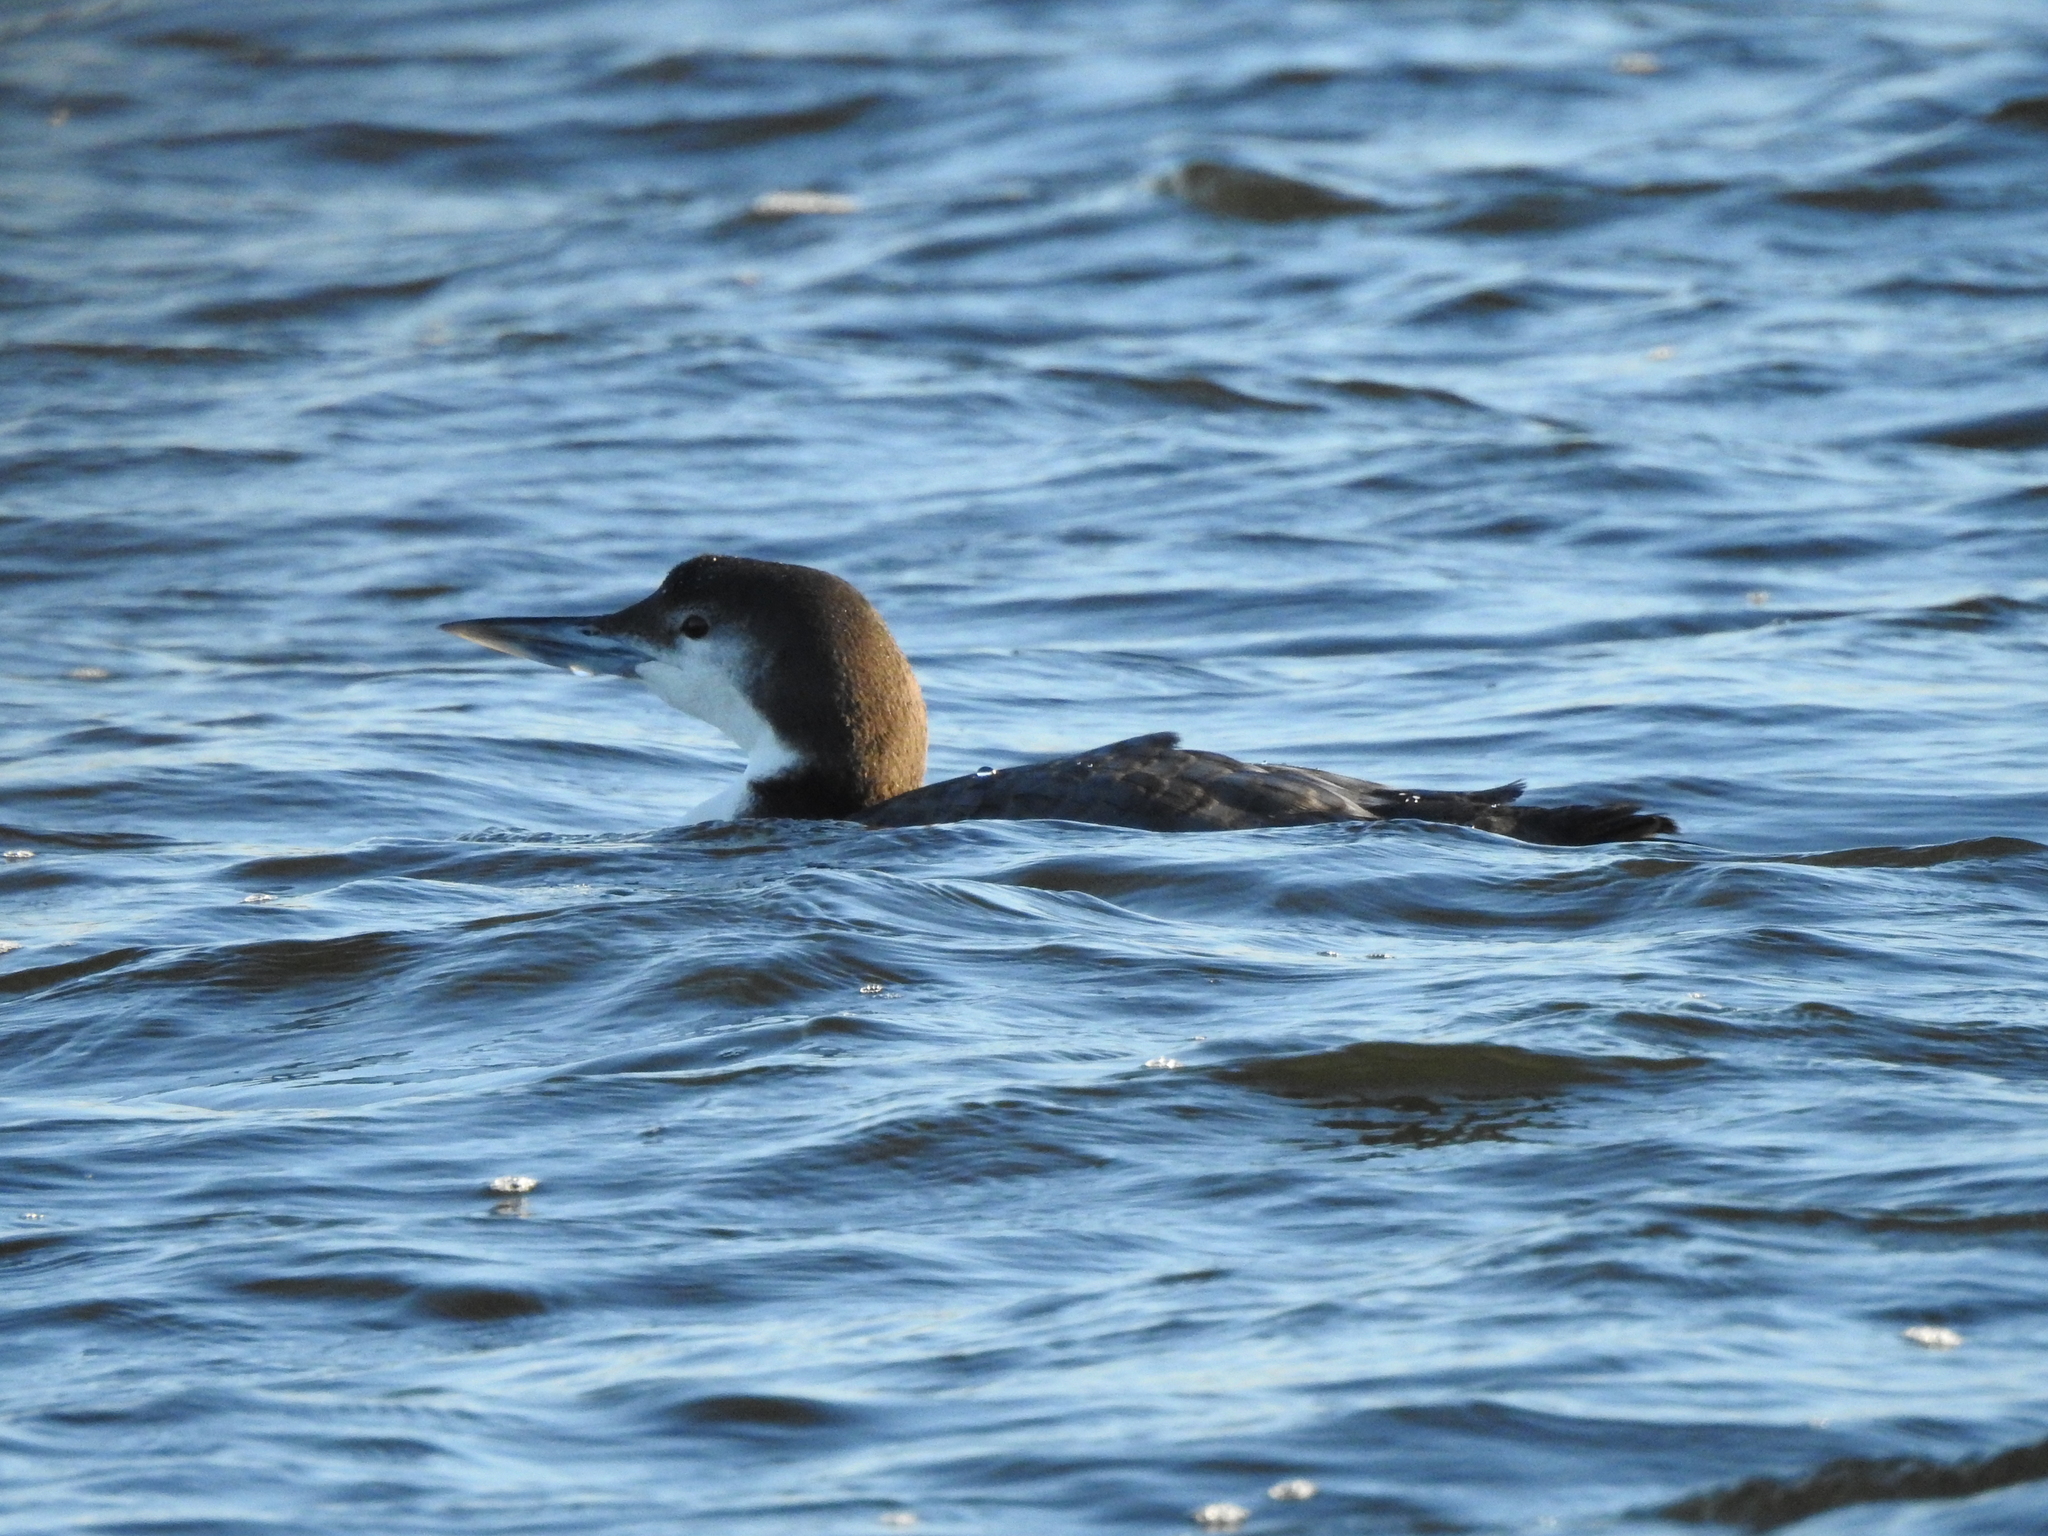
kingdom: Animalia
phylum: Chordata
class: Aves
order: Gaviiformes
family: Gaviidae
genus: Gavia
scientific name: Gavia immer
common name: Common loon
